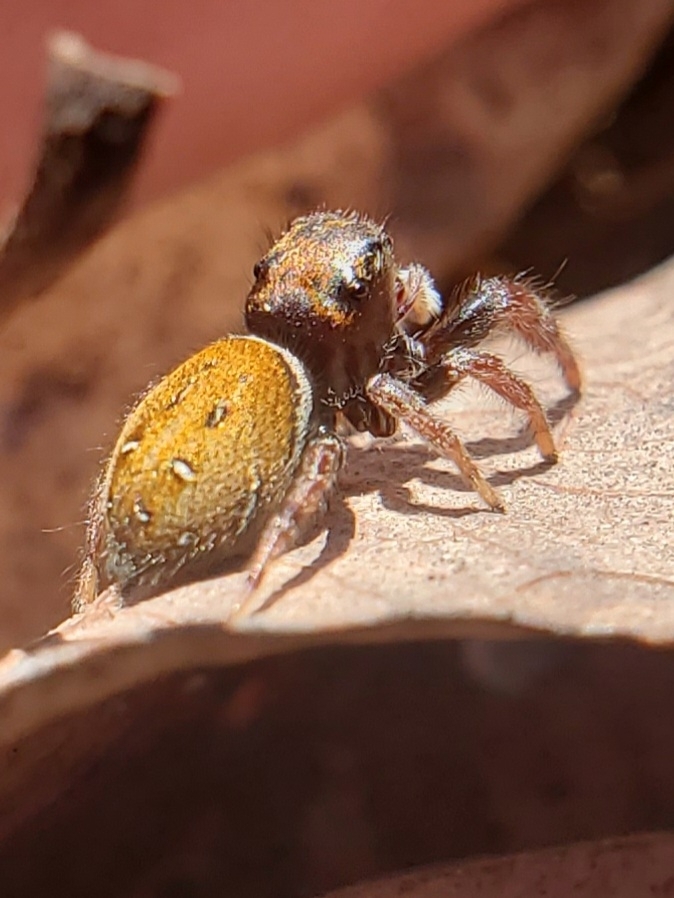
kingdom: Animalia
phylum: Arthropoda
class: Arachnida
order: Araneae
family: Salticidae
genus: Phidippus
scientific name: Phidippus whitmani
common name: Whitman's jumping spider
